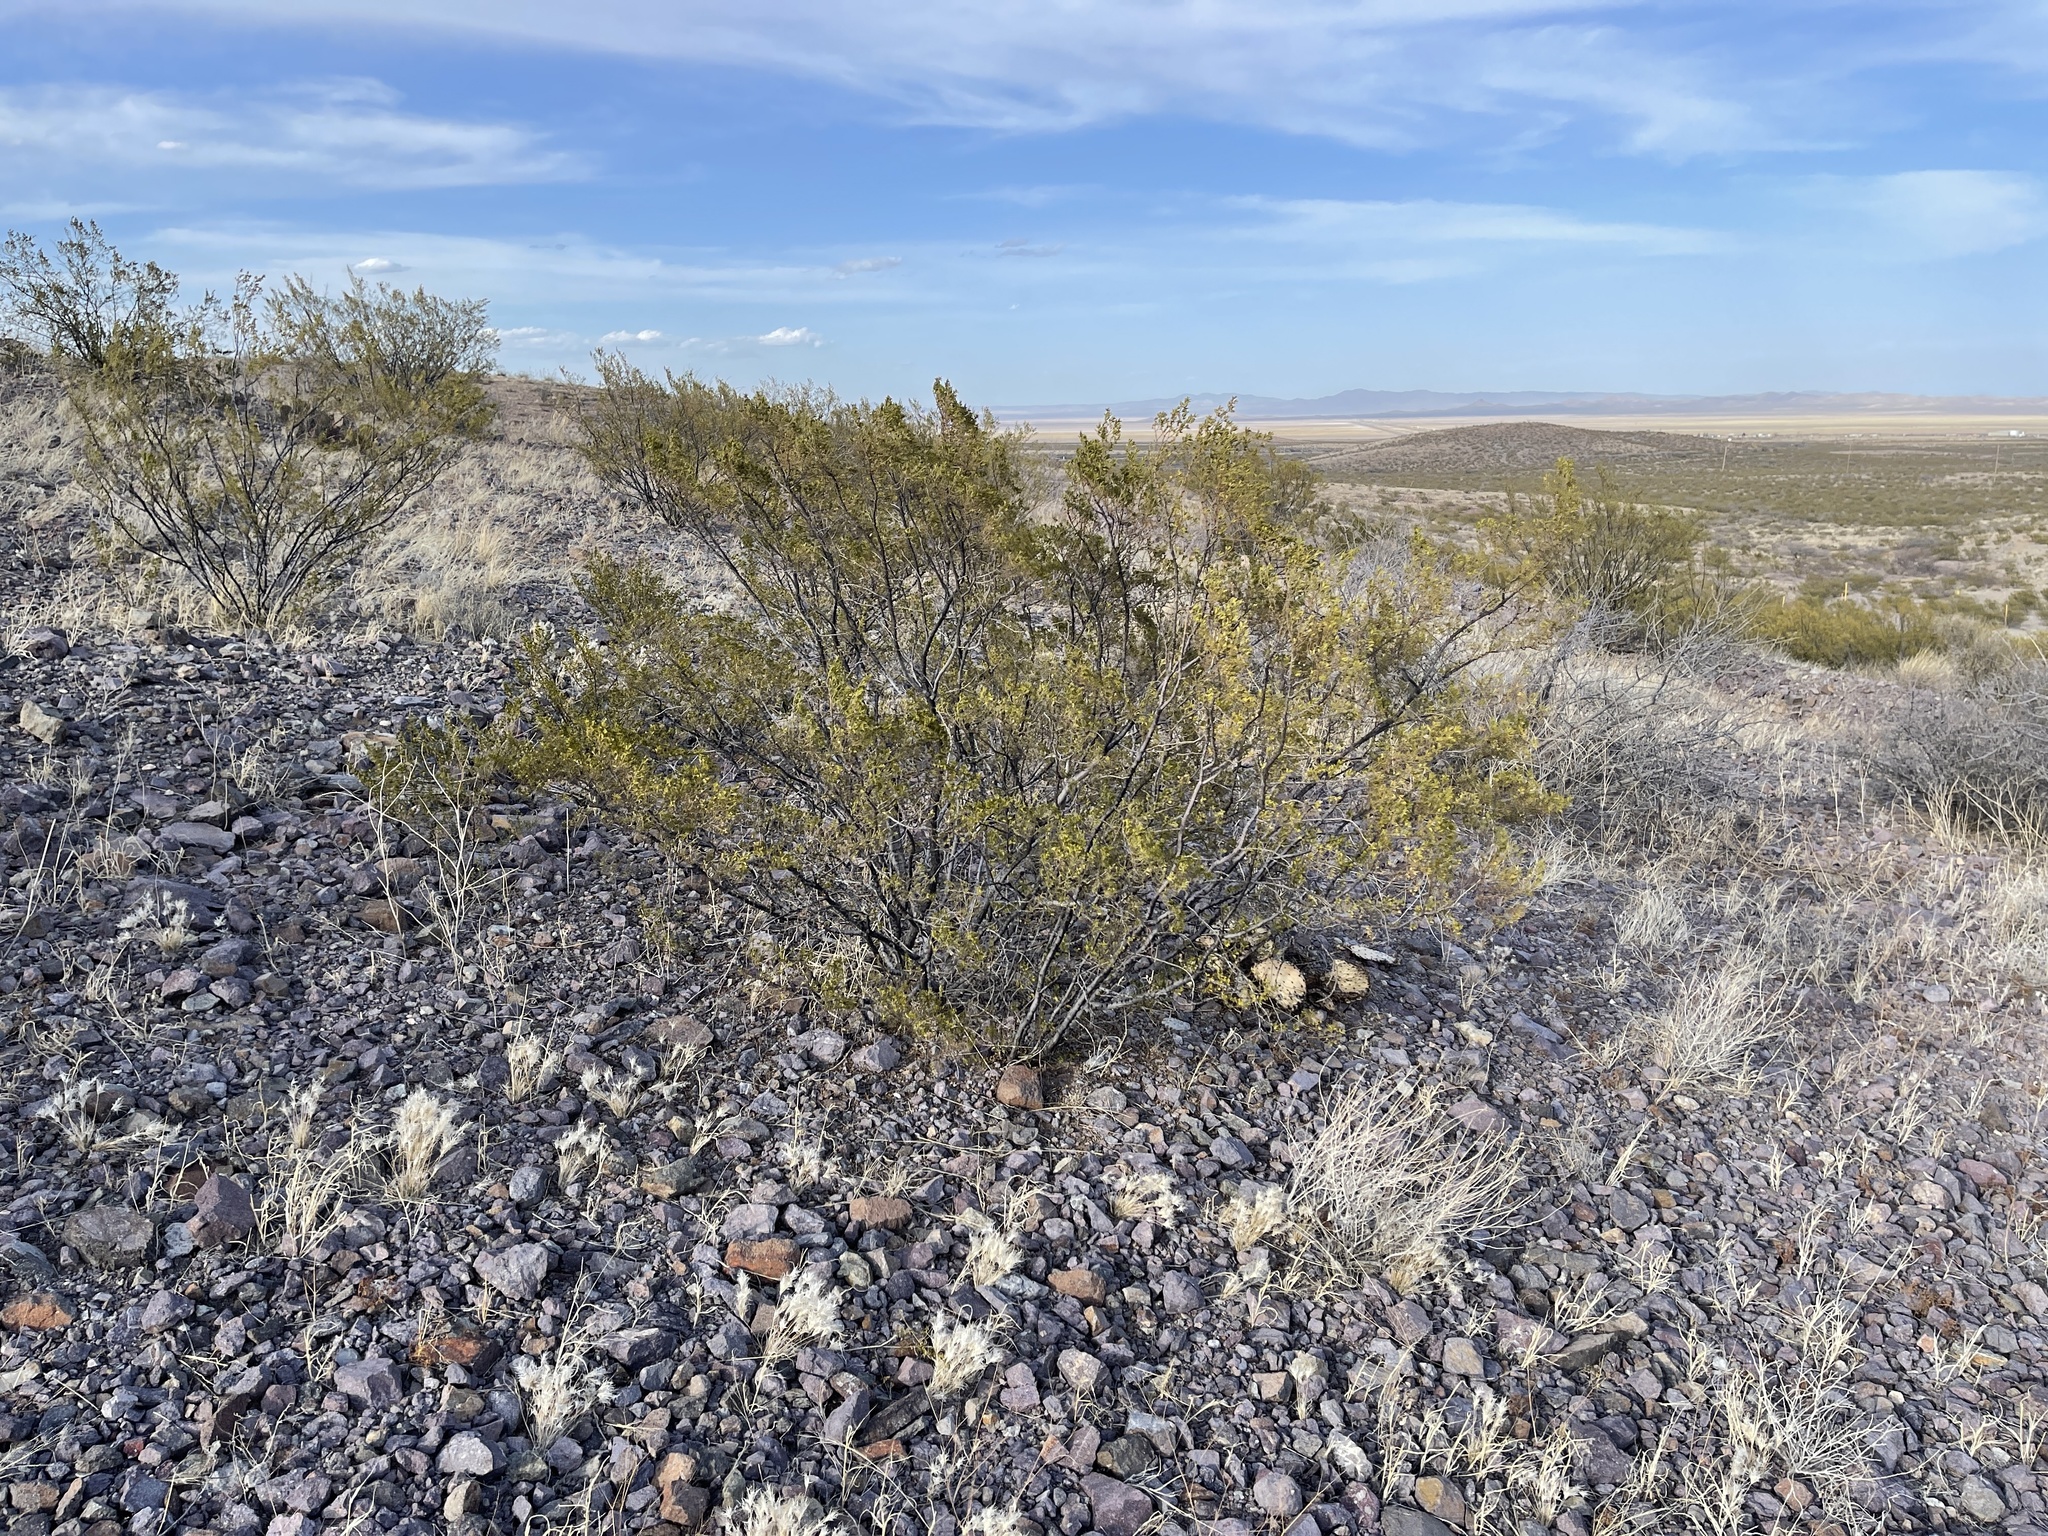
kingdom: Plantae
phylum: Tracheophyta
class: Magnoliopsida
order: Zygophyllales
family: Zygophyllaceae
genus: Larrea
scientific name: Larrea tridentata
